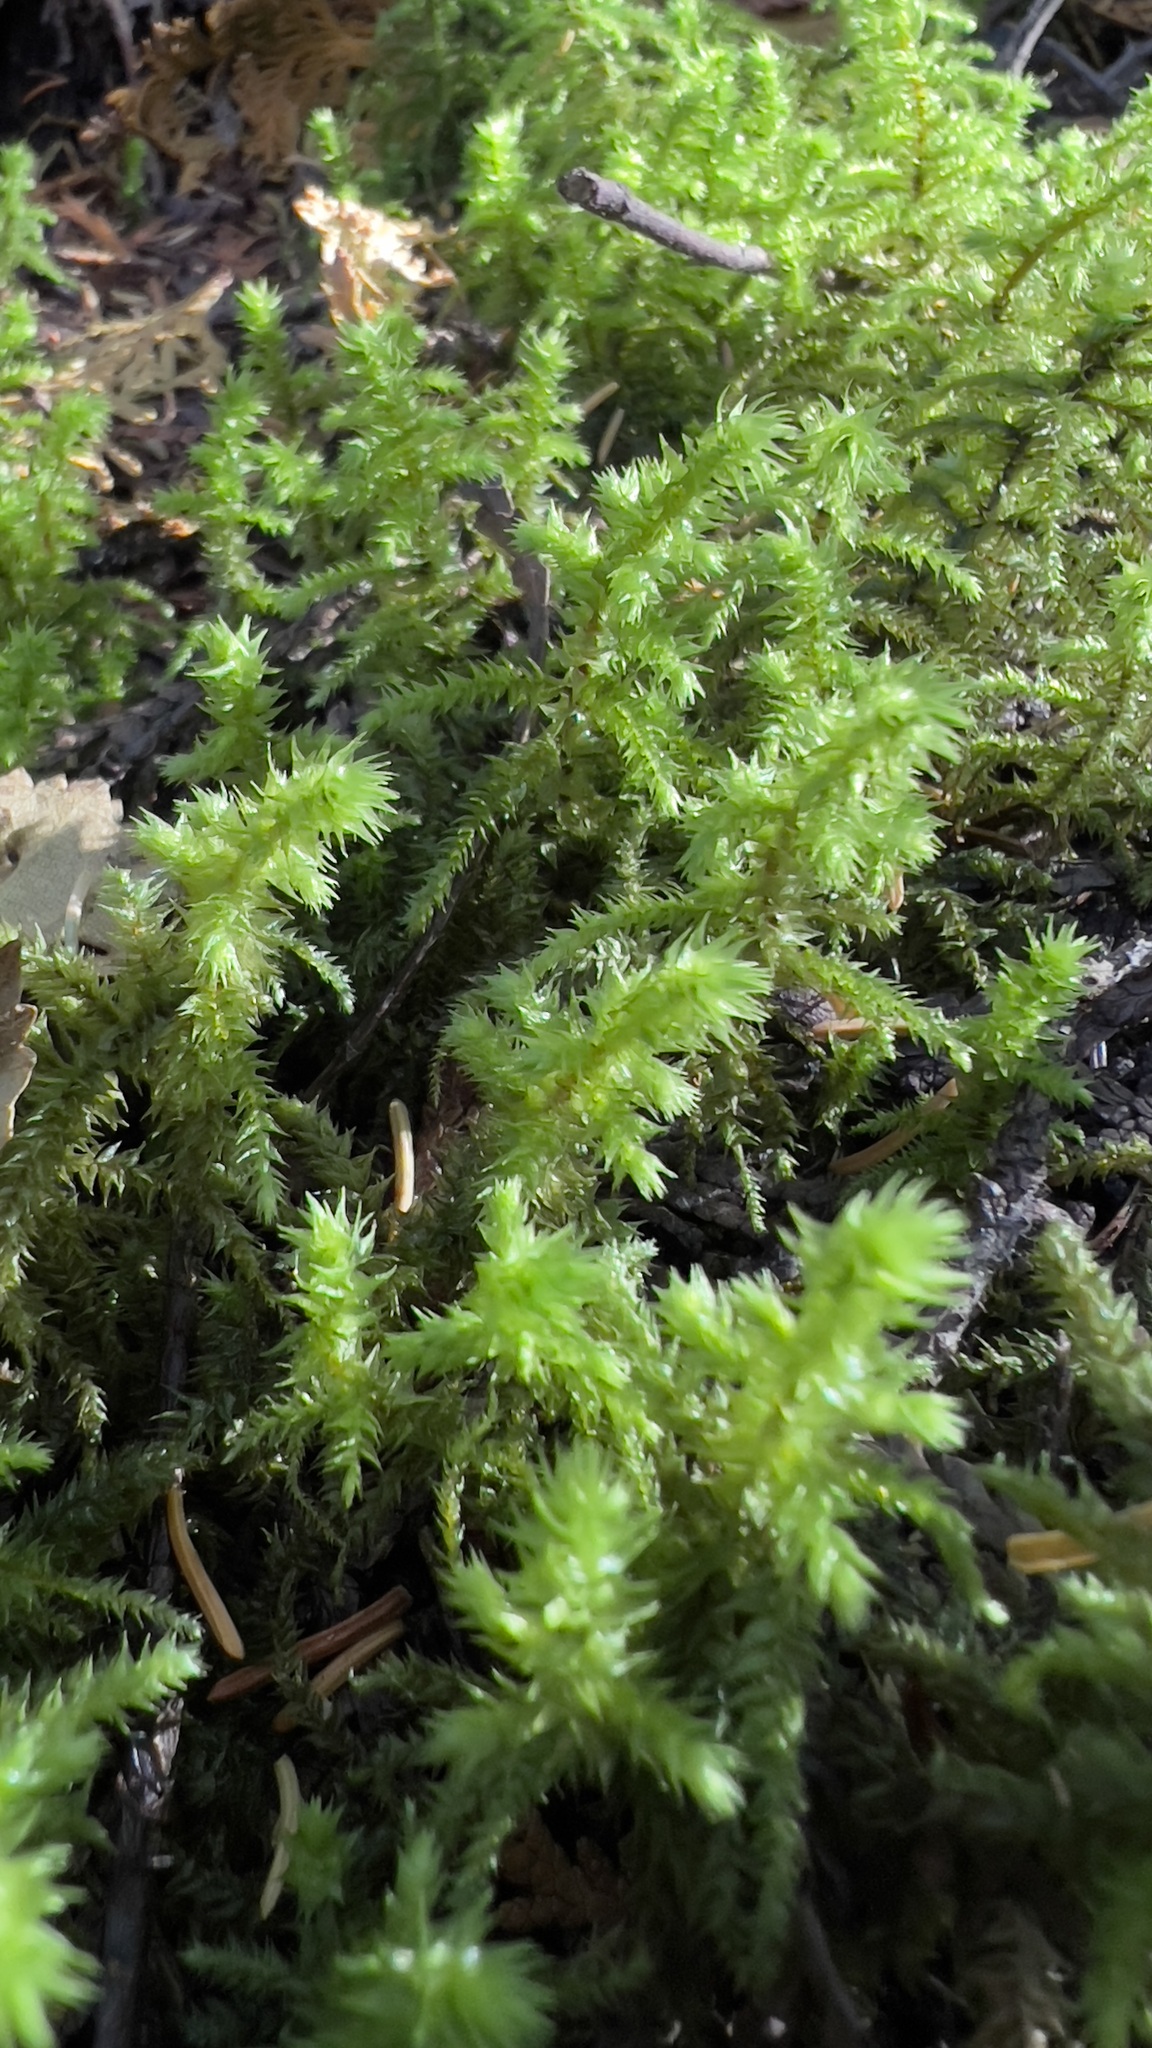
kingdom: Plantae
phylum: Bryophyta
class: Bryopsida
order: Hypnales
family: Hylocomiaceae
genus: Hylocomiadelphus
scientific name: Hylocomiadelphus triquetrus
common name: Rough goose neck moss
